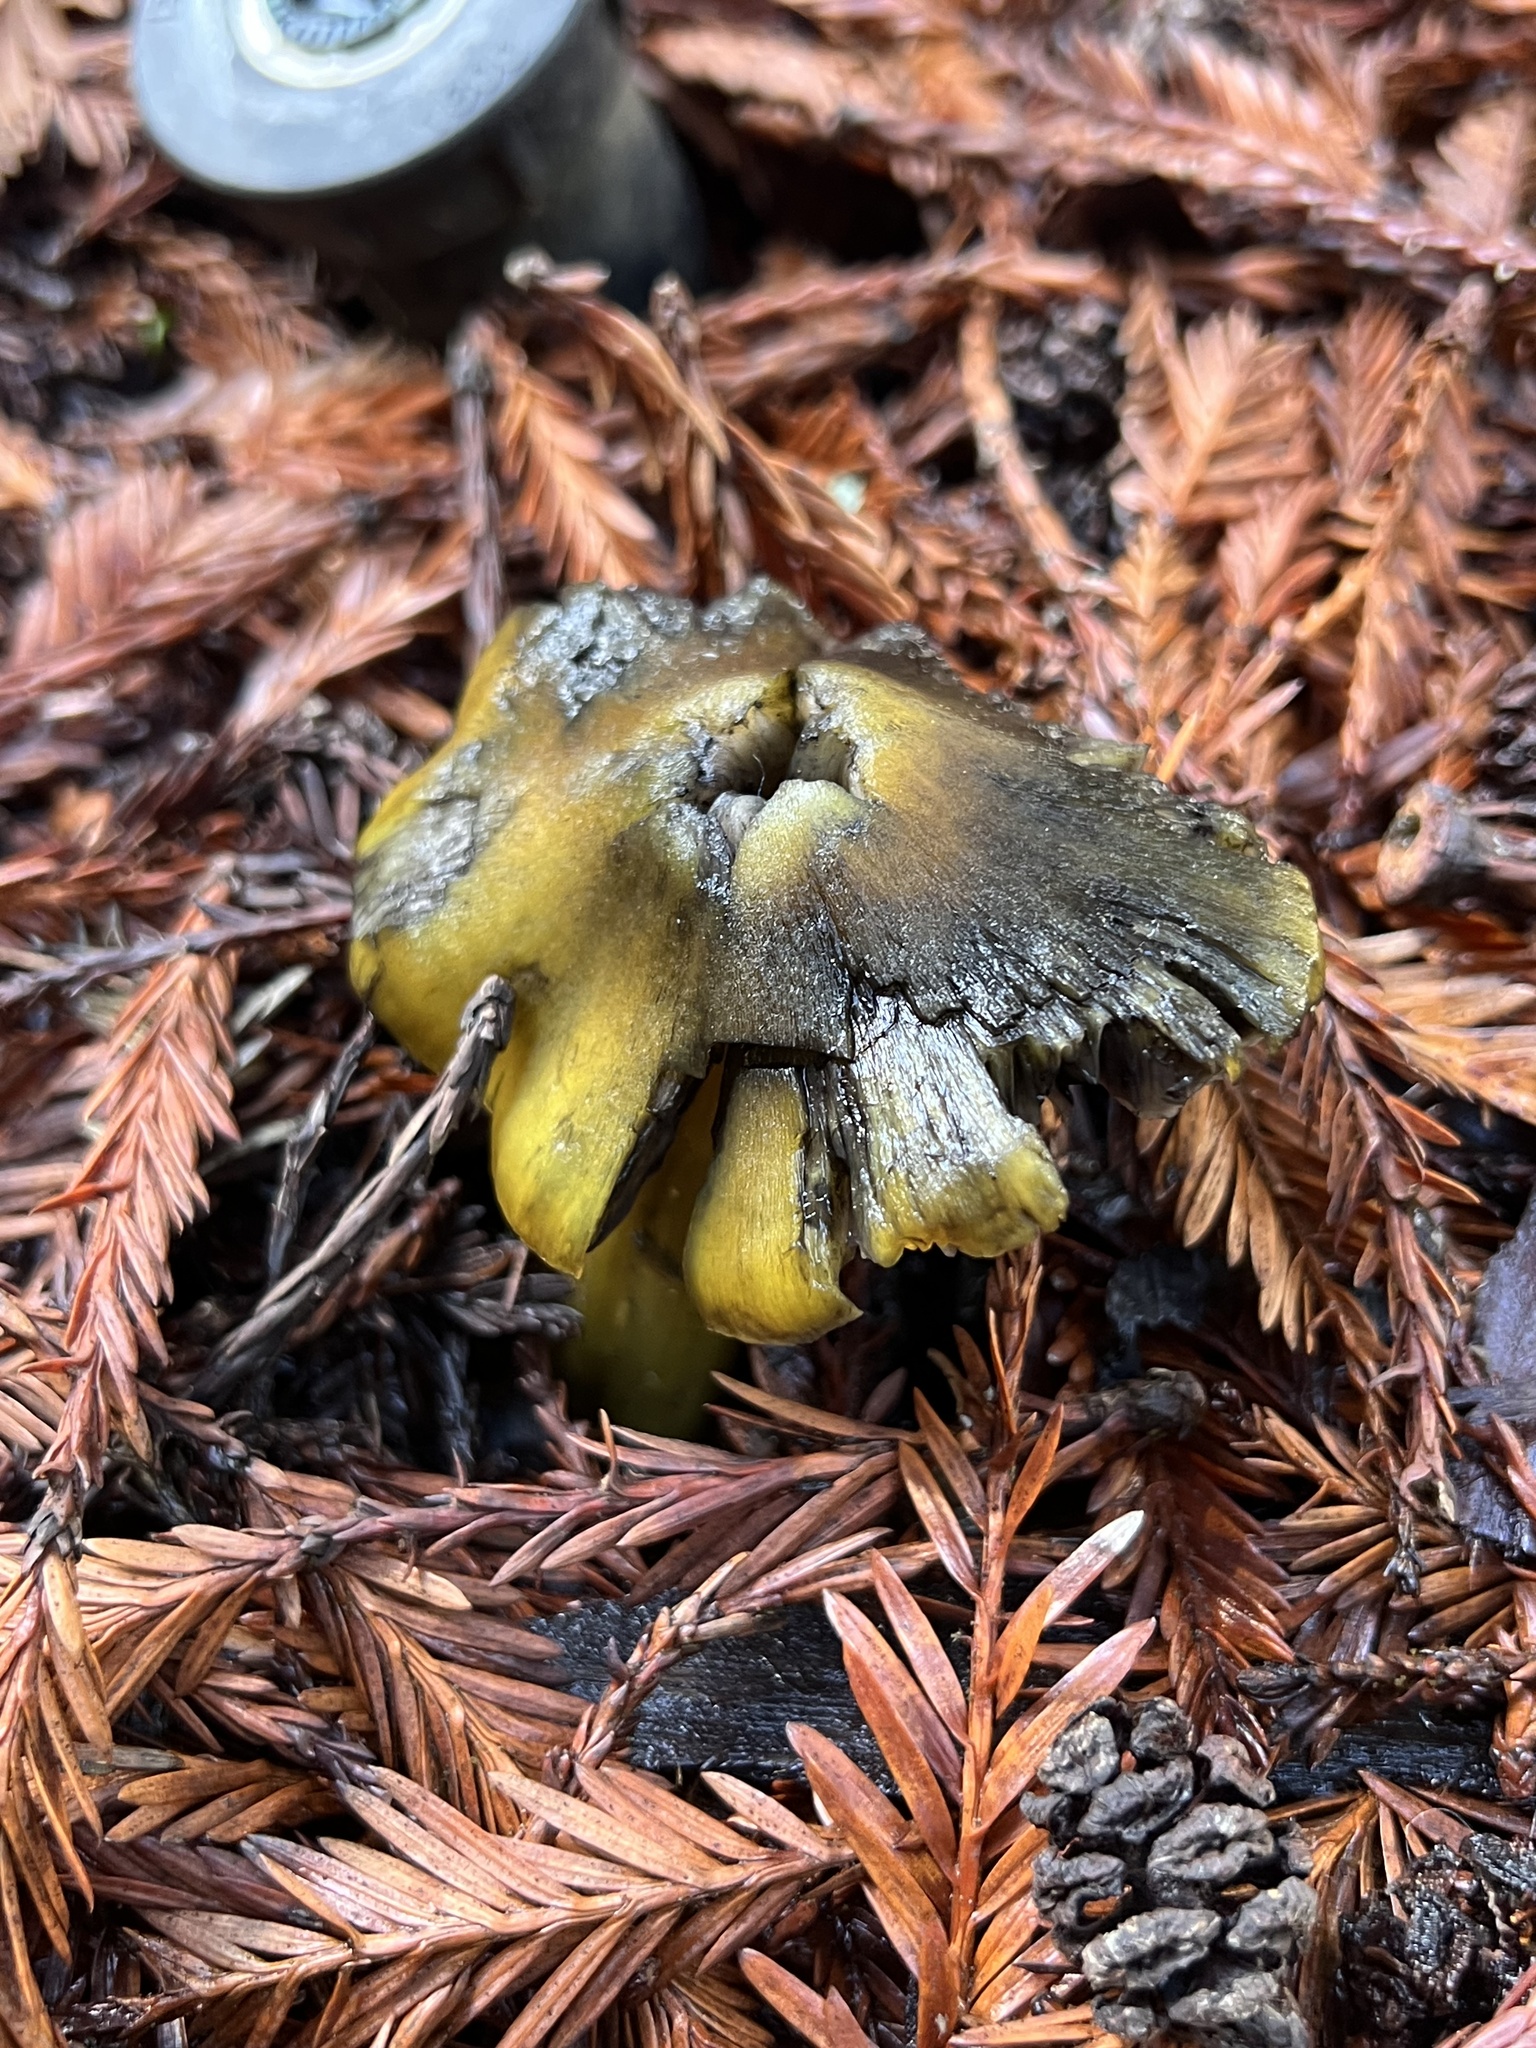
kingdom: Fungi
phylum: Basidiomycota
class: Agaricomycetes
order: Agaricales
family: Hygrophoraceae
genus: Hygrocybe
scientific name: Hygrocybe singeri
